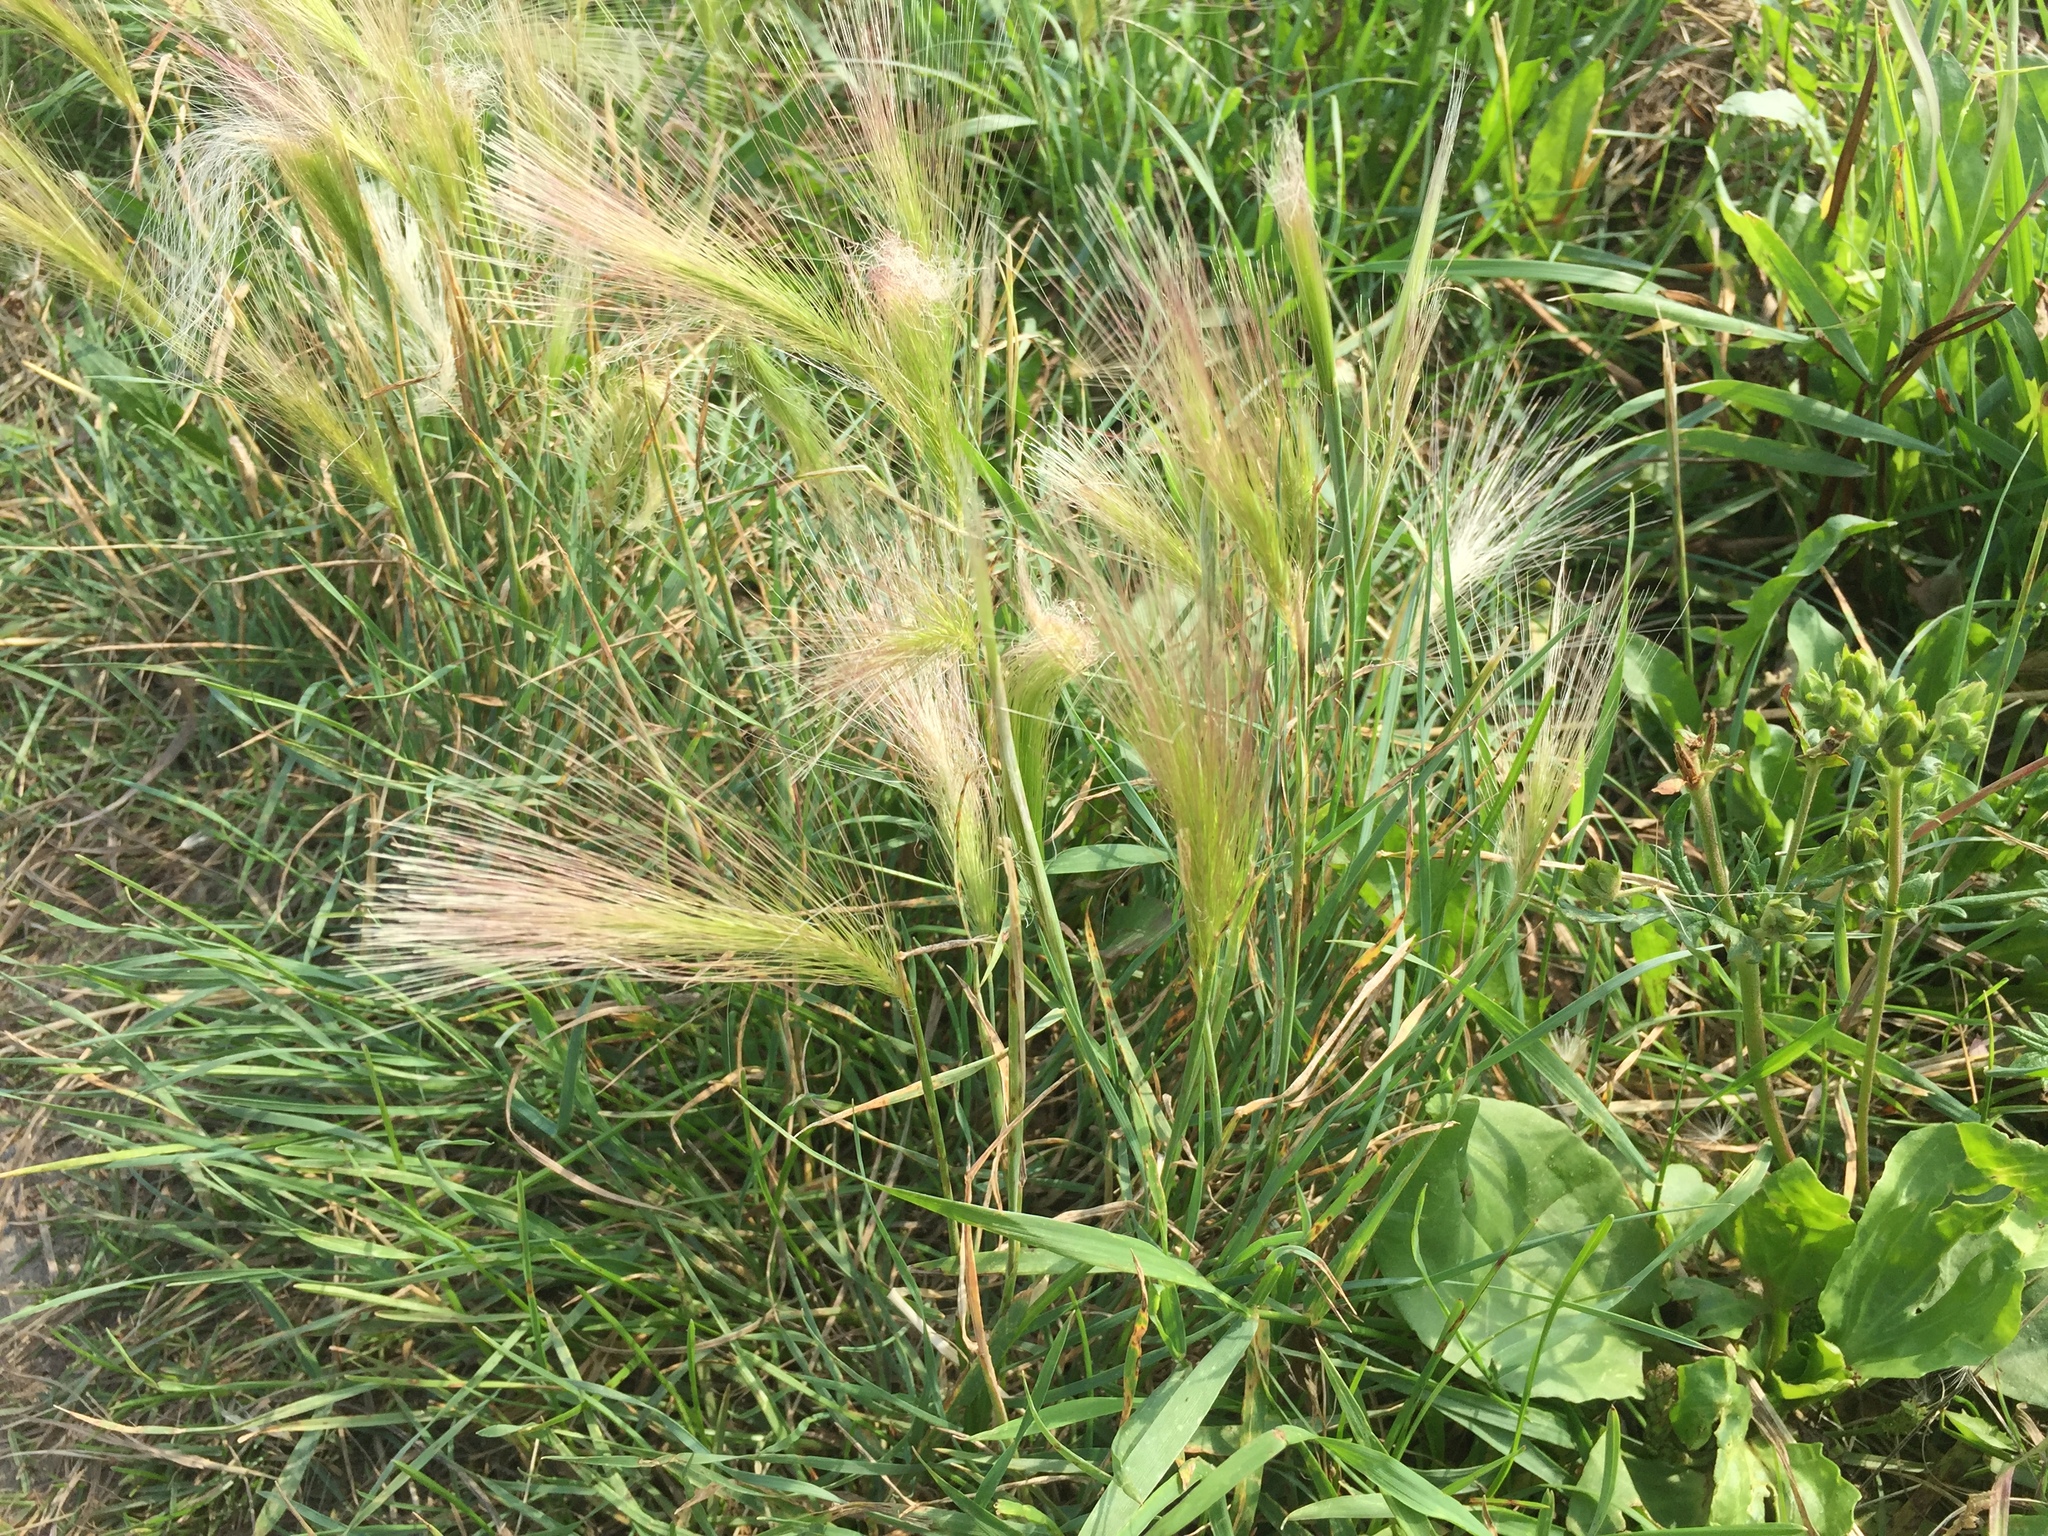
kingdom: Plantae
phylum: Tracheophyta
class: Liliopsida
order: Poales
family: Poaceae
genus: Hordeum
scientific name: Hordeum jubatum
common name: Foxtail barley
